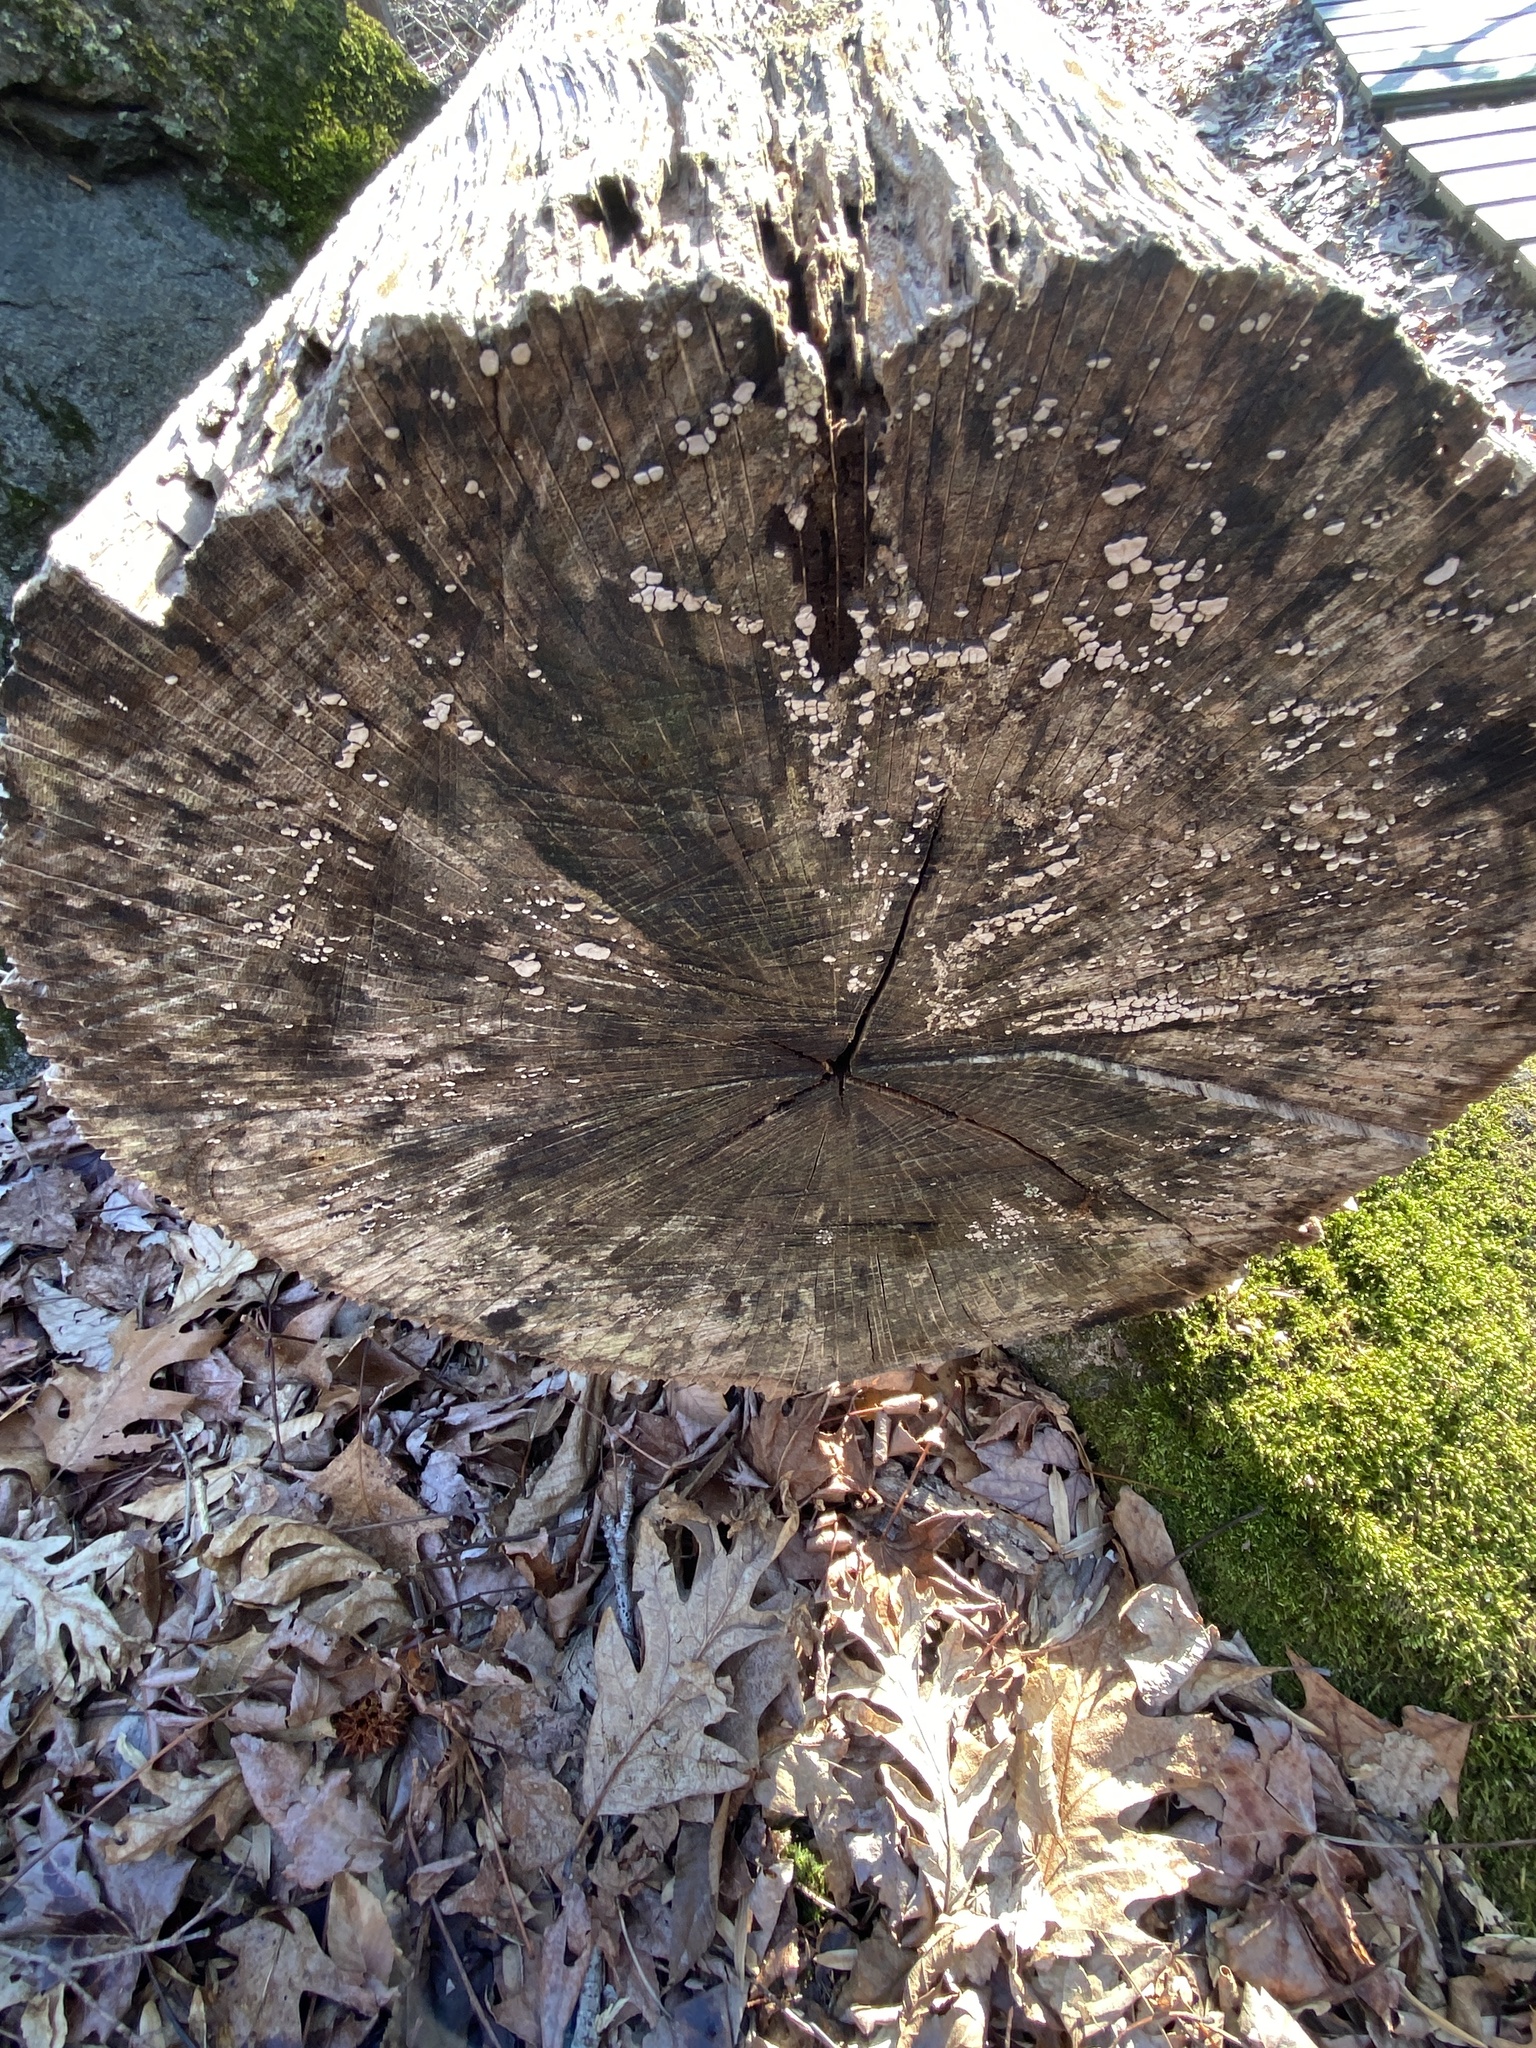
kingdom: Fungi
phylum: Basidiomycota
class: Agaricomycetes
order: Russulales
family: Stereaceae
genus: Xylobolus
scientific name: Xylobolus frustulatus
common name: Ceramic parchment
